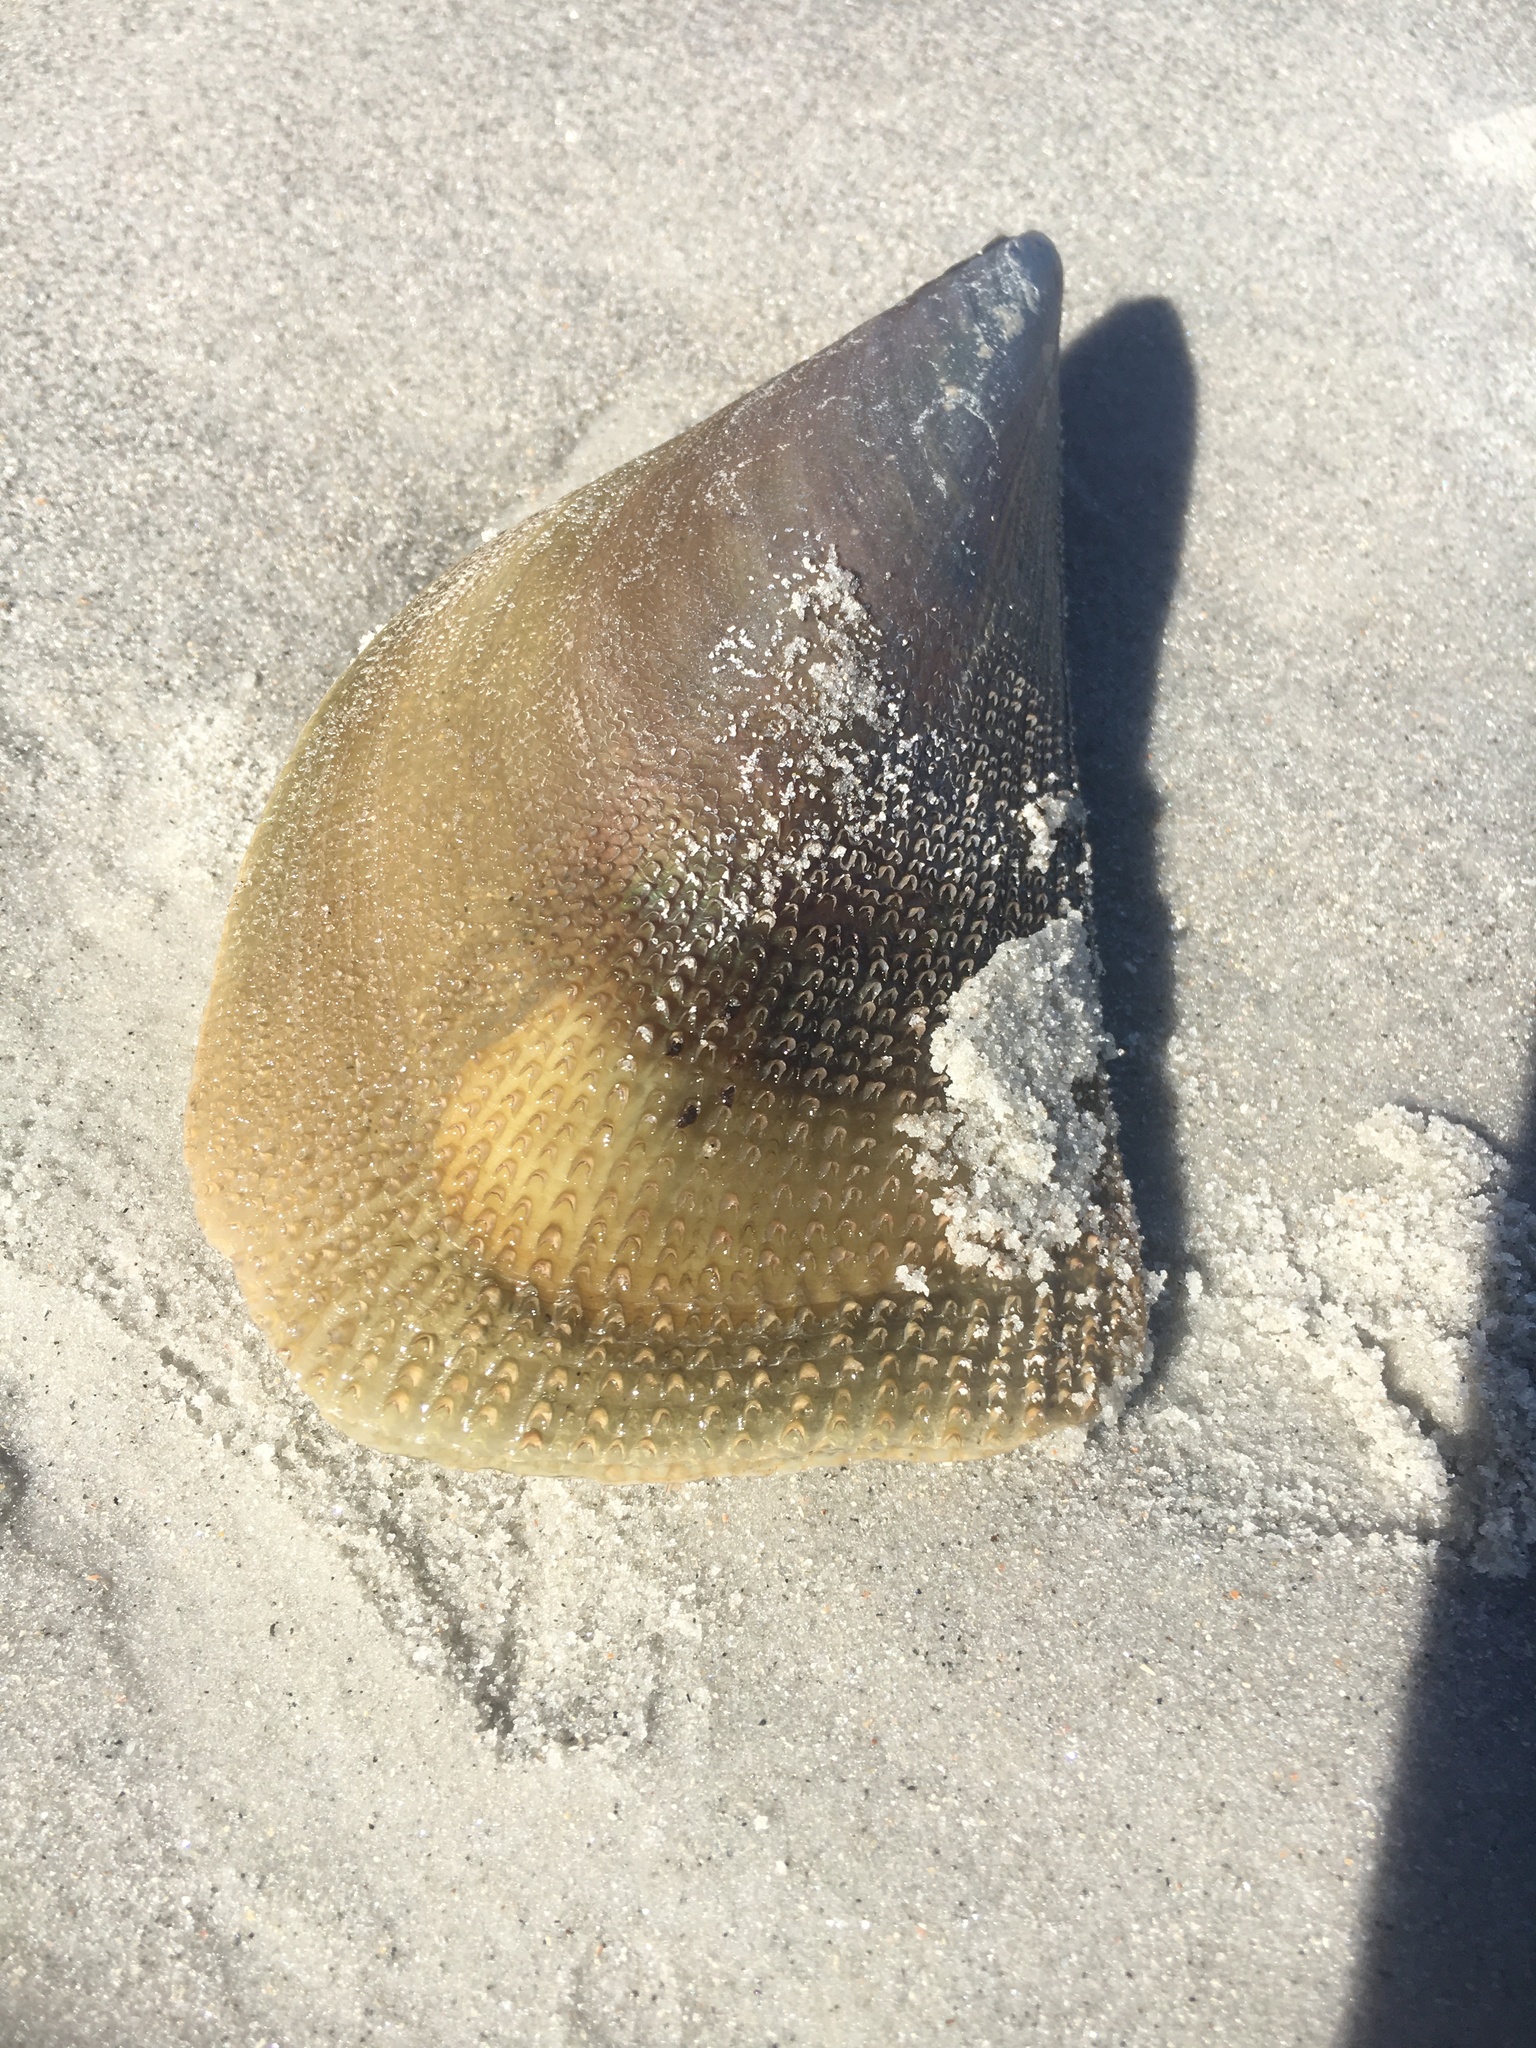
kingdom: Animalia
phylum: Mollusca
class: Bivalvia
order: Ostreida
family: Pinnidae
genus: Atrina
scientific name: Atrina serrata
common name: Saw-toothed penshell
